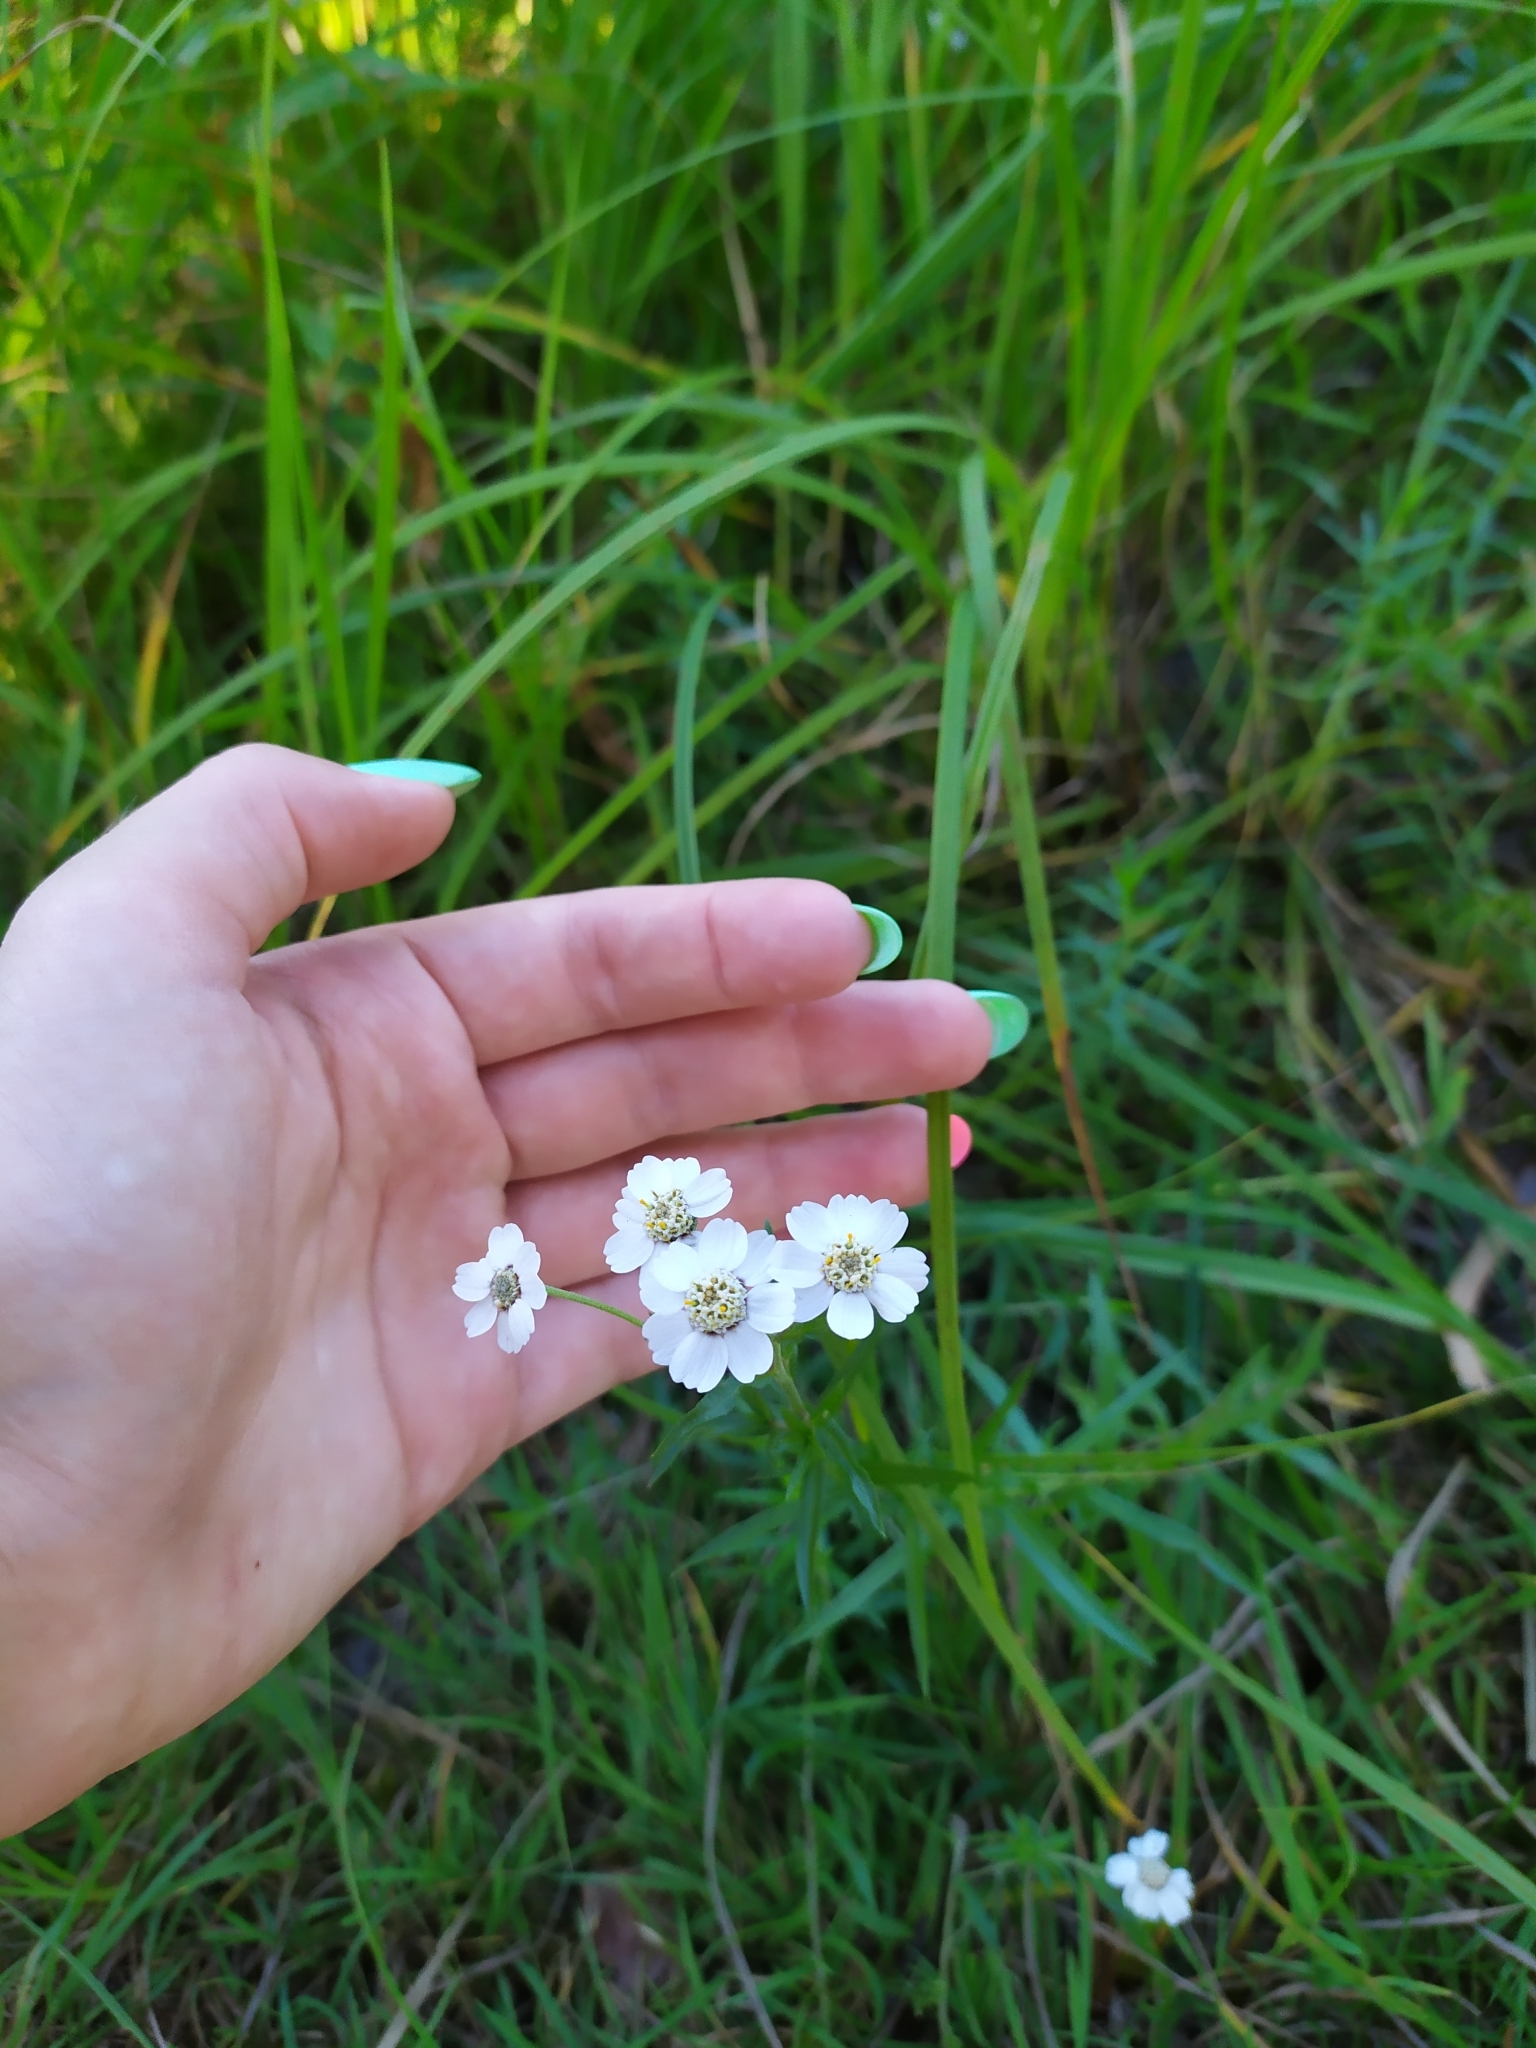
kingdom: Plantae
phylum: Tracheophyta
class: Magnoliopsida
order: Asterales
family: Asteraceae
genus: Achillea
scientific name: Achillea ptarmica
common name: Sneezeweed
